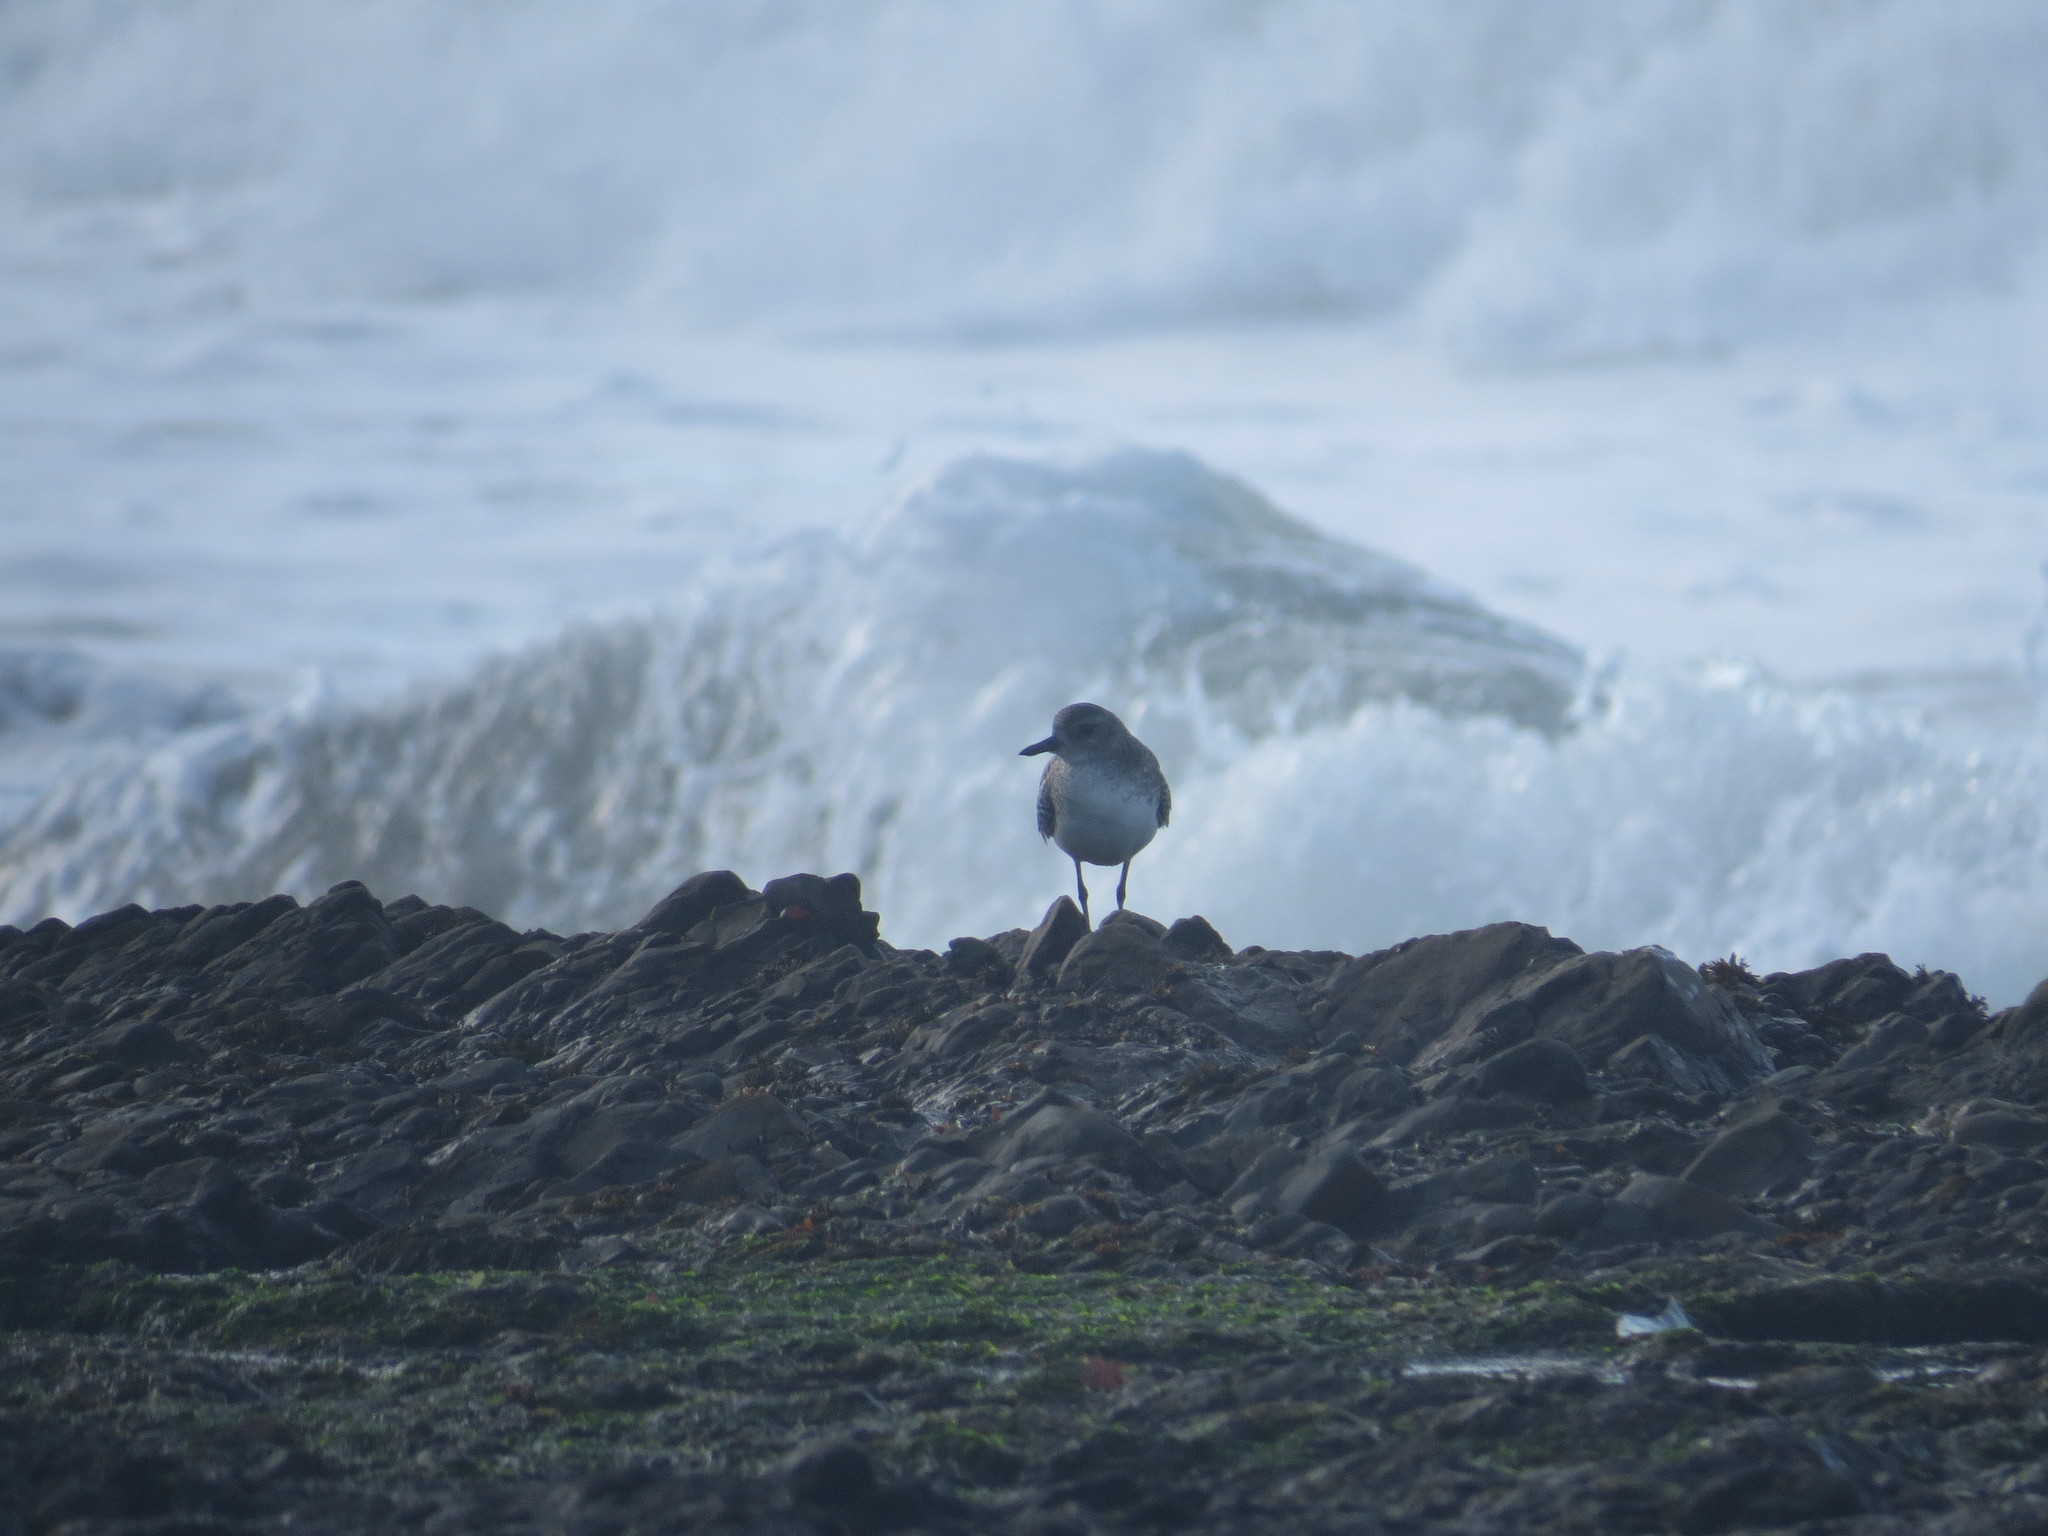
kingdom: Animalia
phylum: Chordata
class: Aves
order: Charadriiformes
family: Charadriidae
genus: Pluvialis
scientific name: Pluvialis squatarola
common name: Grey plover
